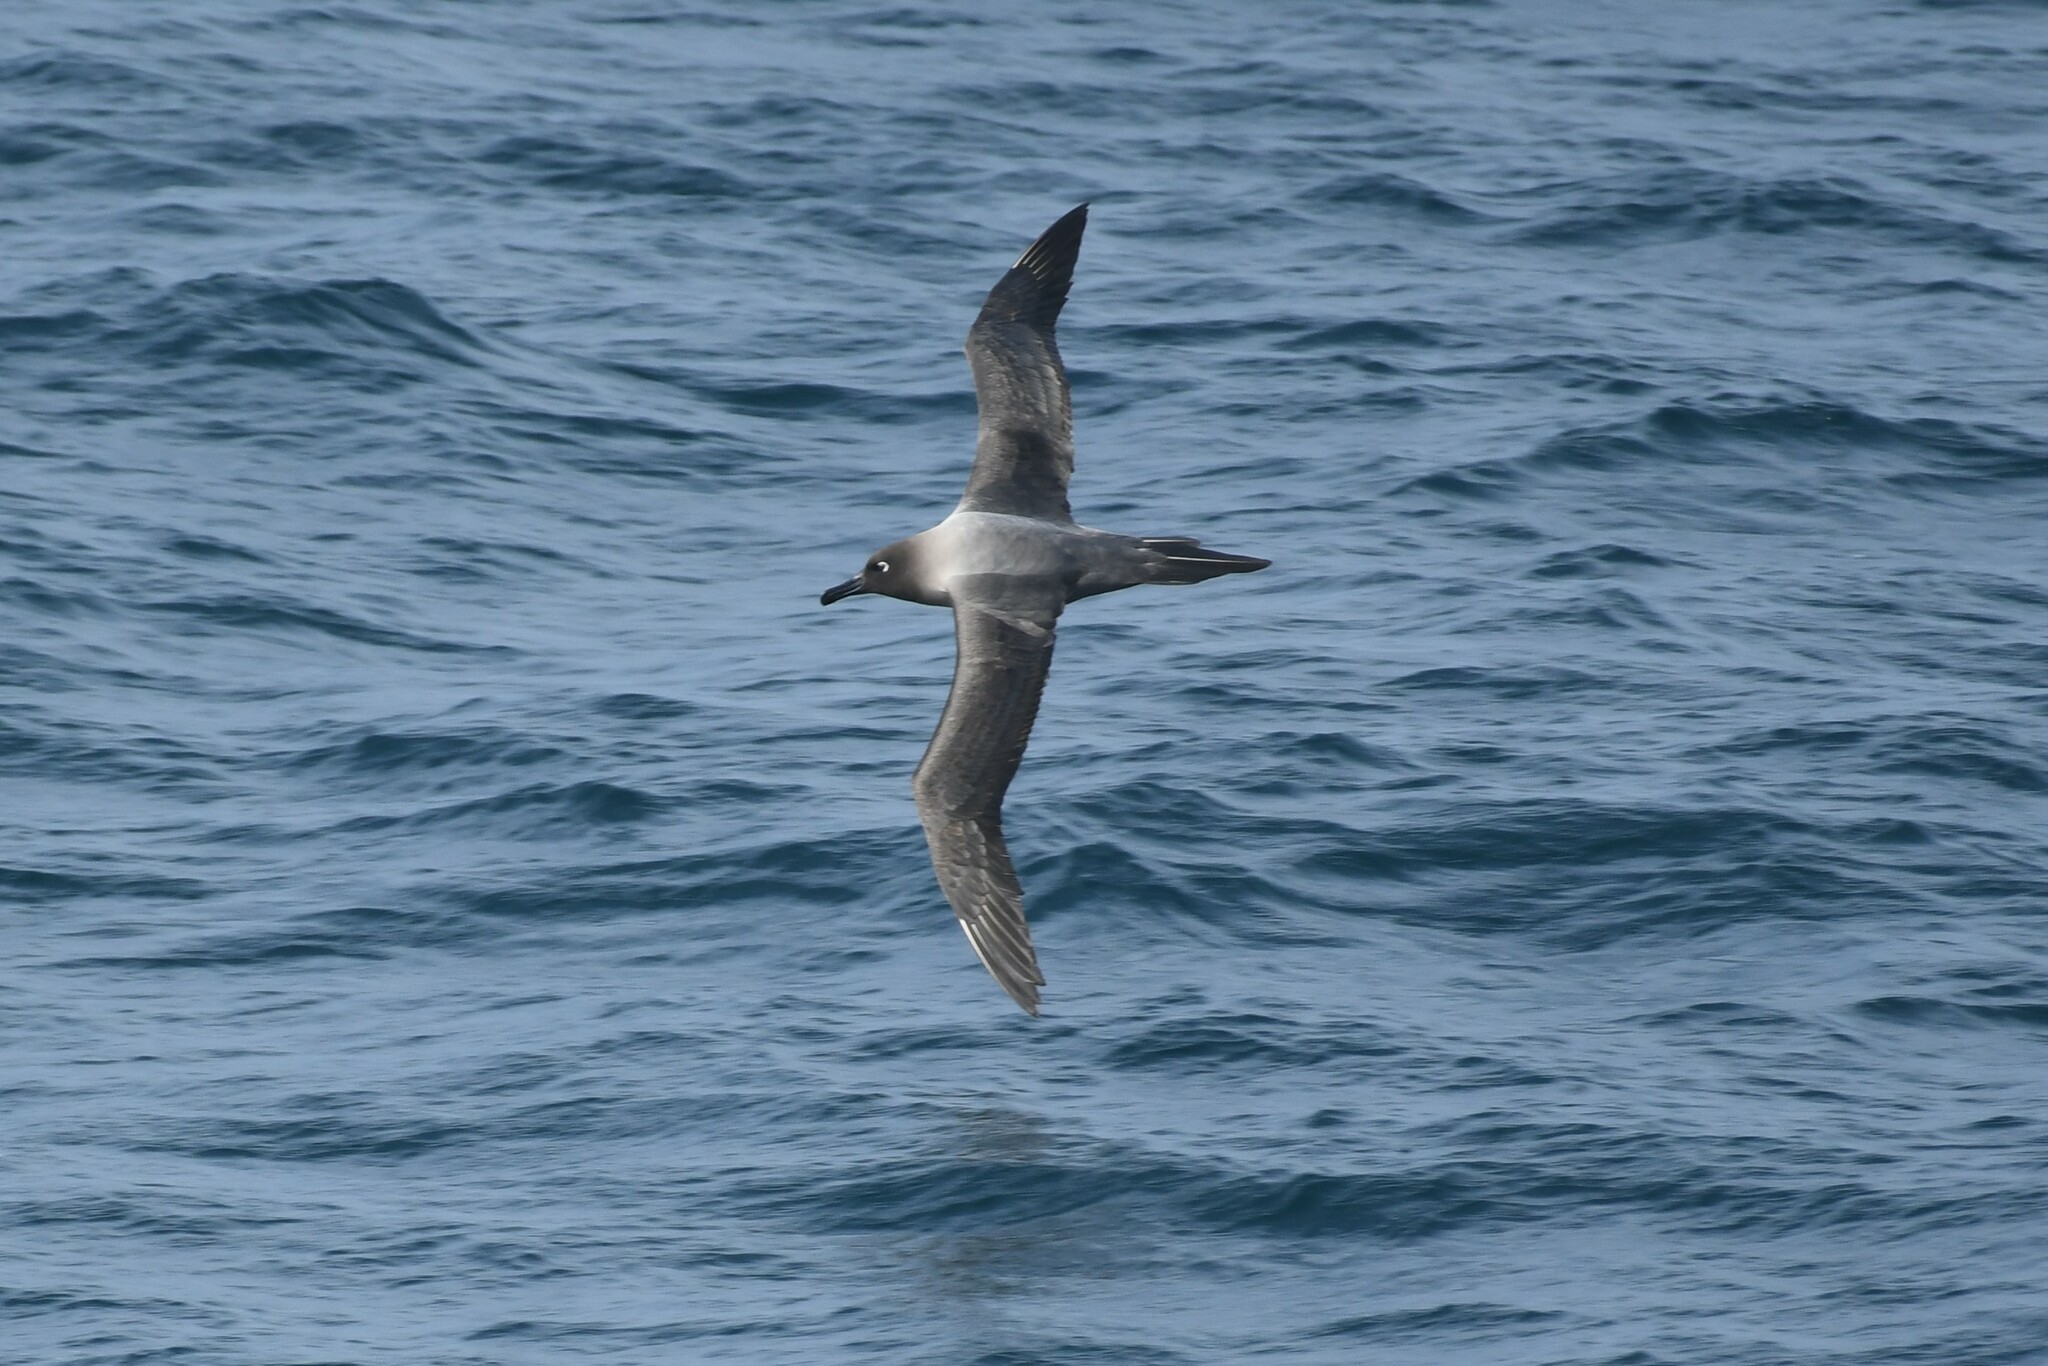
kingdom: Animalia
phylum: Chordata
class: Aves
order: Procellariiformes
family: Diomedeidae
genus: Phoebetria
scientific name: Phoebetria palpebrata
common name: Light-mantled albatross
